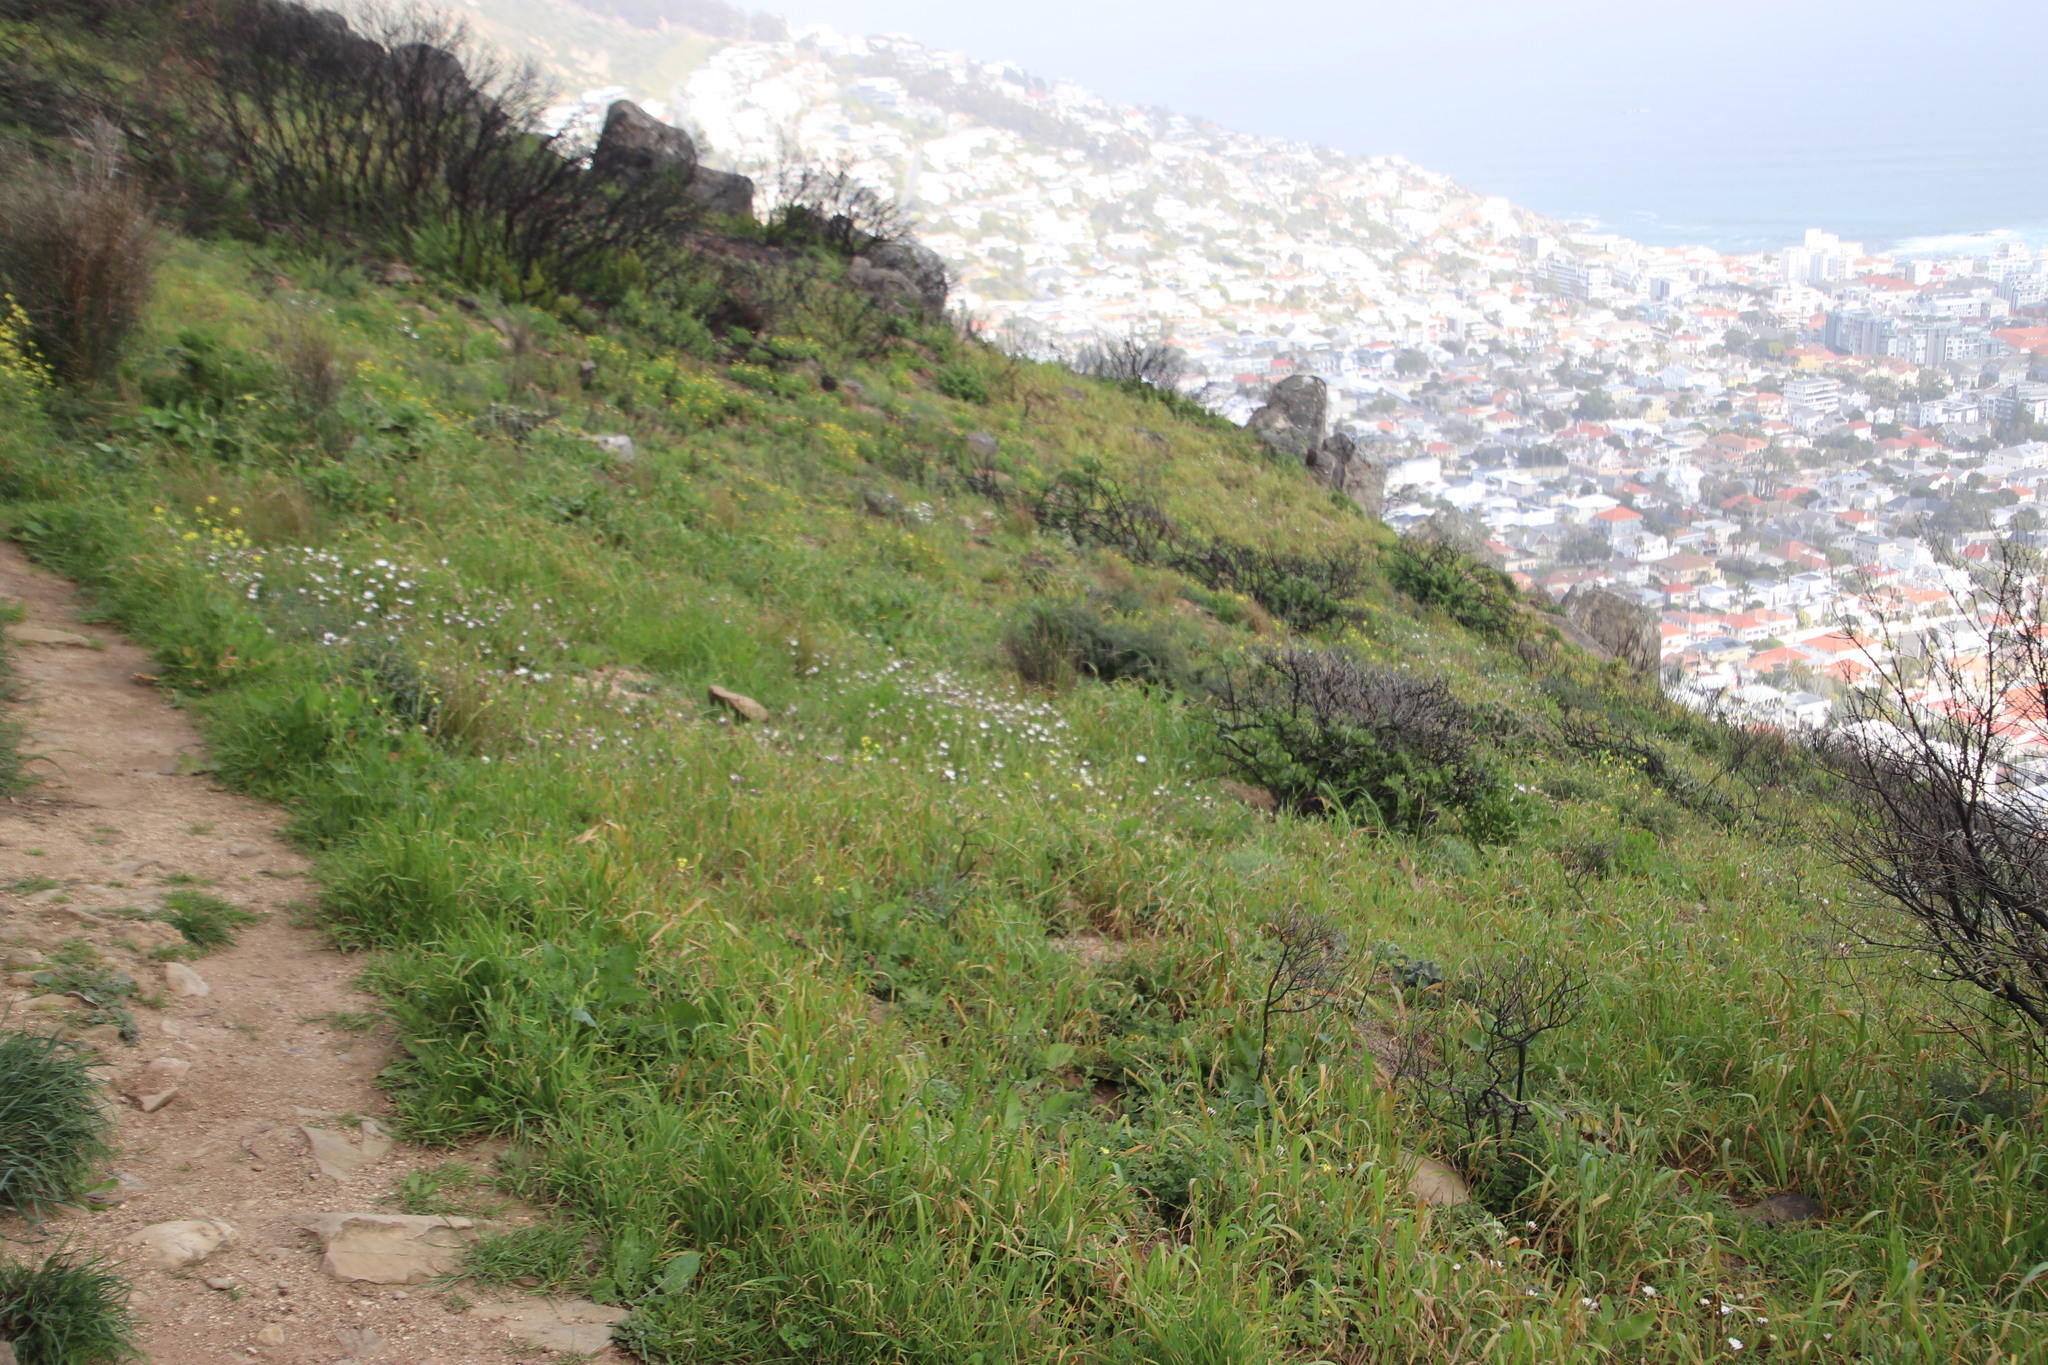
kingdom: Plantae
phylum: Tracheophyta
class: Magnoliopsida
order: Asterales
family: Asteraceae
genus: Dimorphotheca
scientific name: Dimorphotheca pluvialis
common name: Weather prophet
